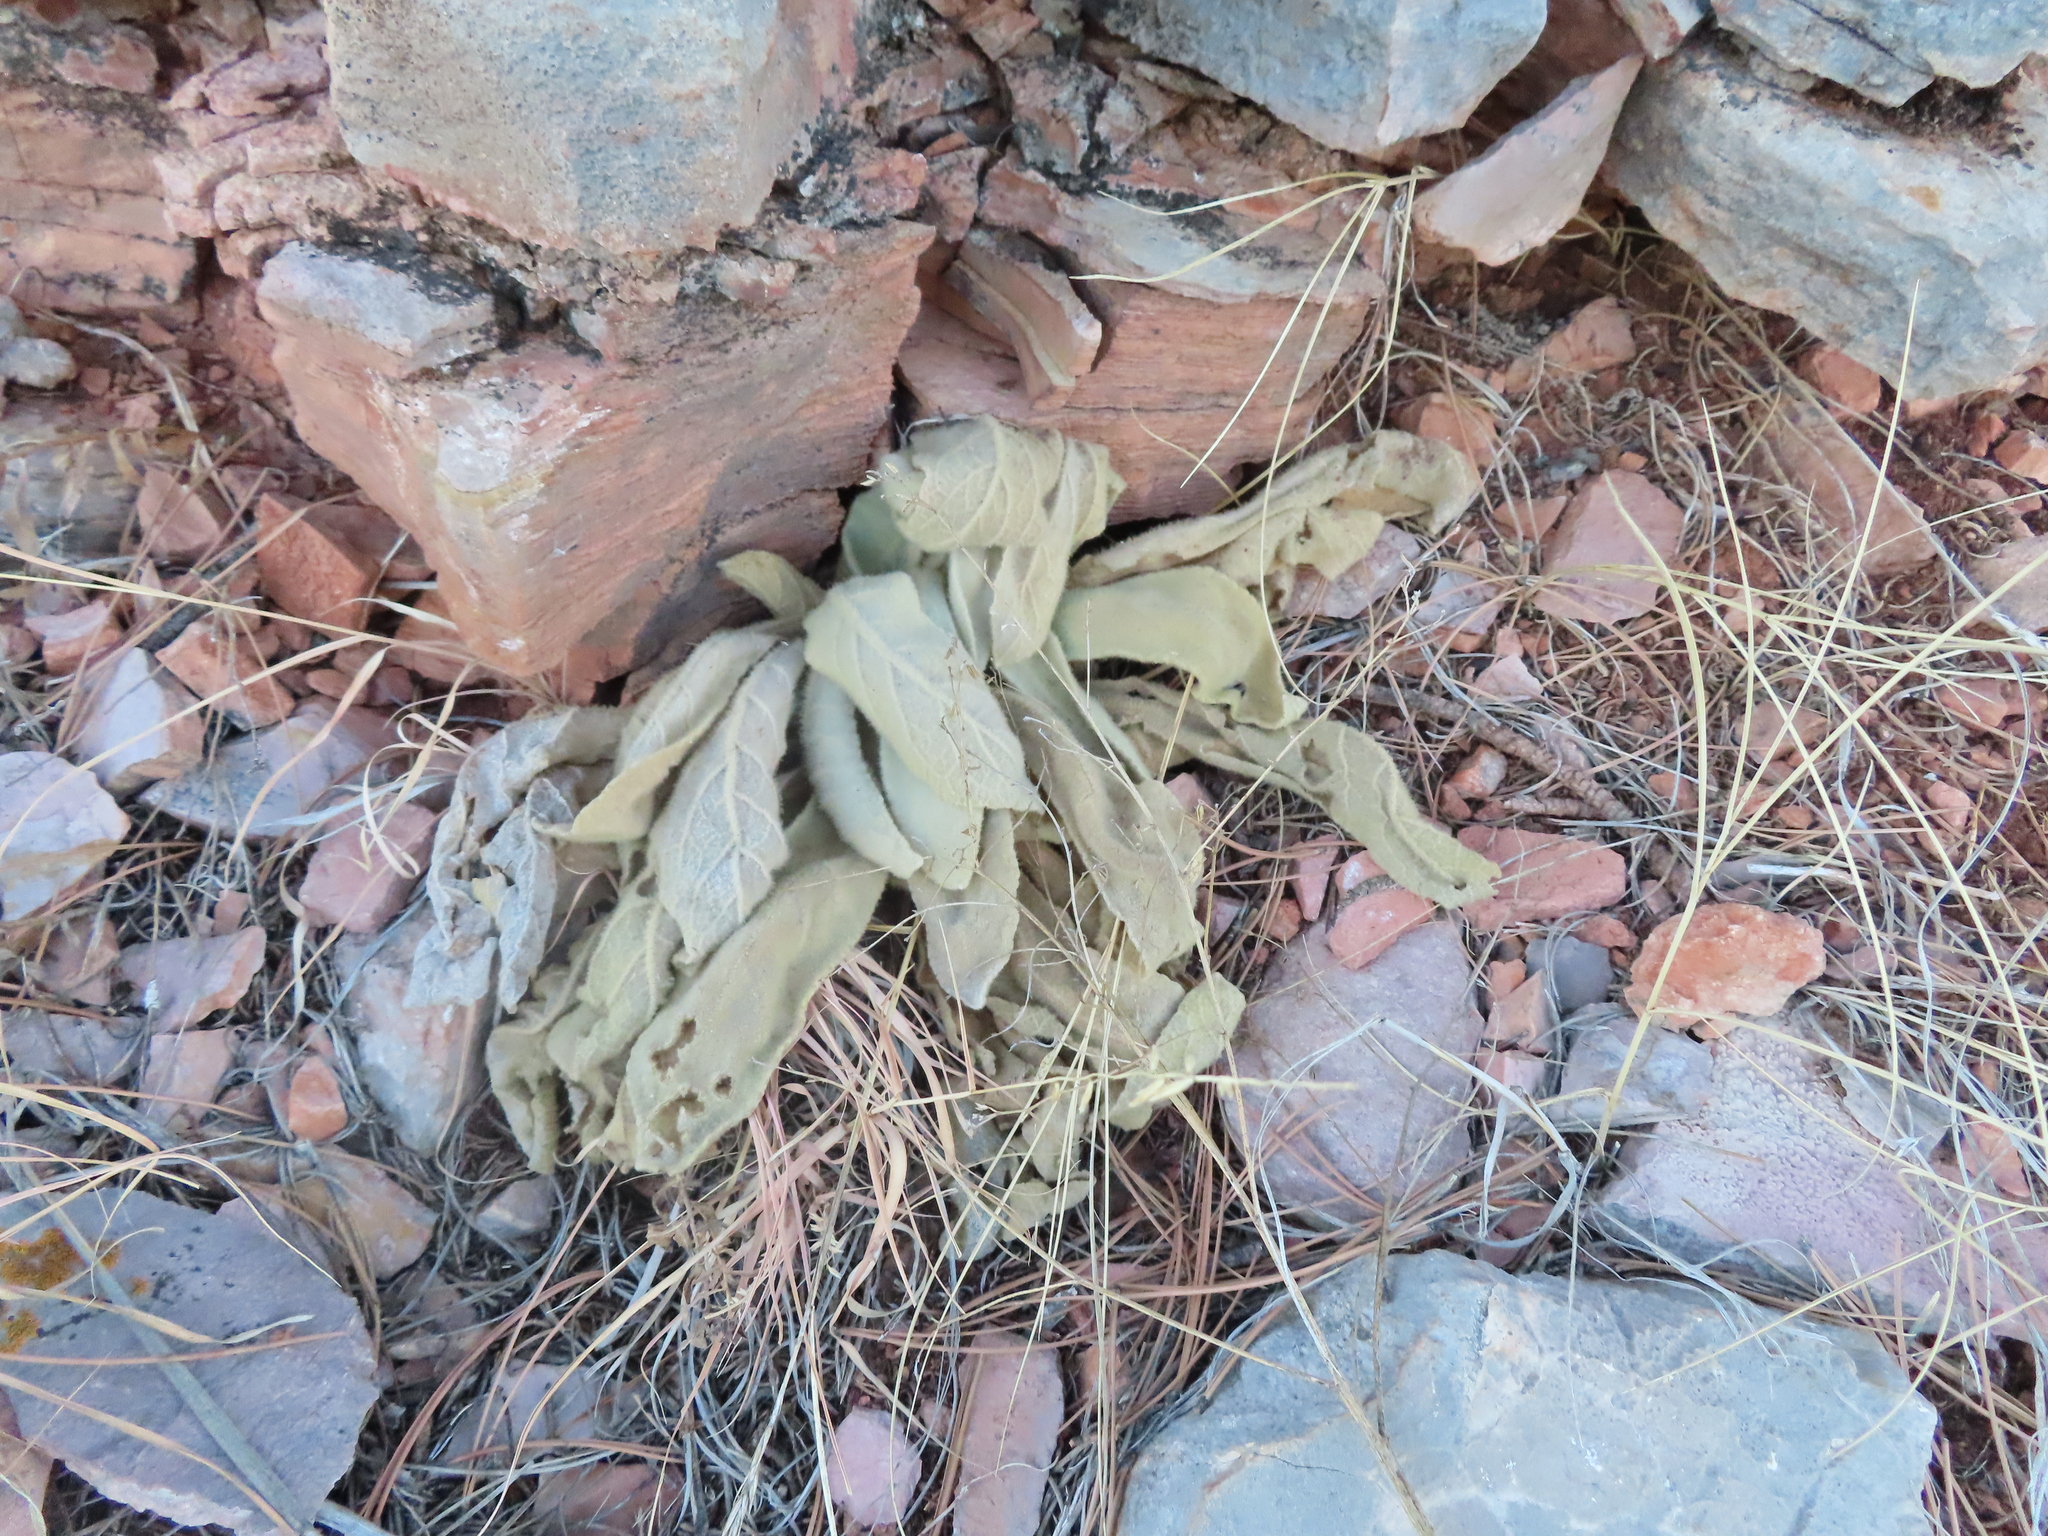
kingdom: Plantae
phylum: Tracheophyta
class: Magnoliopsida
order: Lamiales
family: Scrophulariaceae
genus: Verbascum
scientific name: Verbascum thapsus
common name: Common mullein
